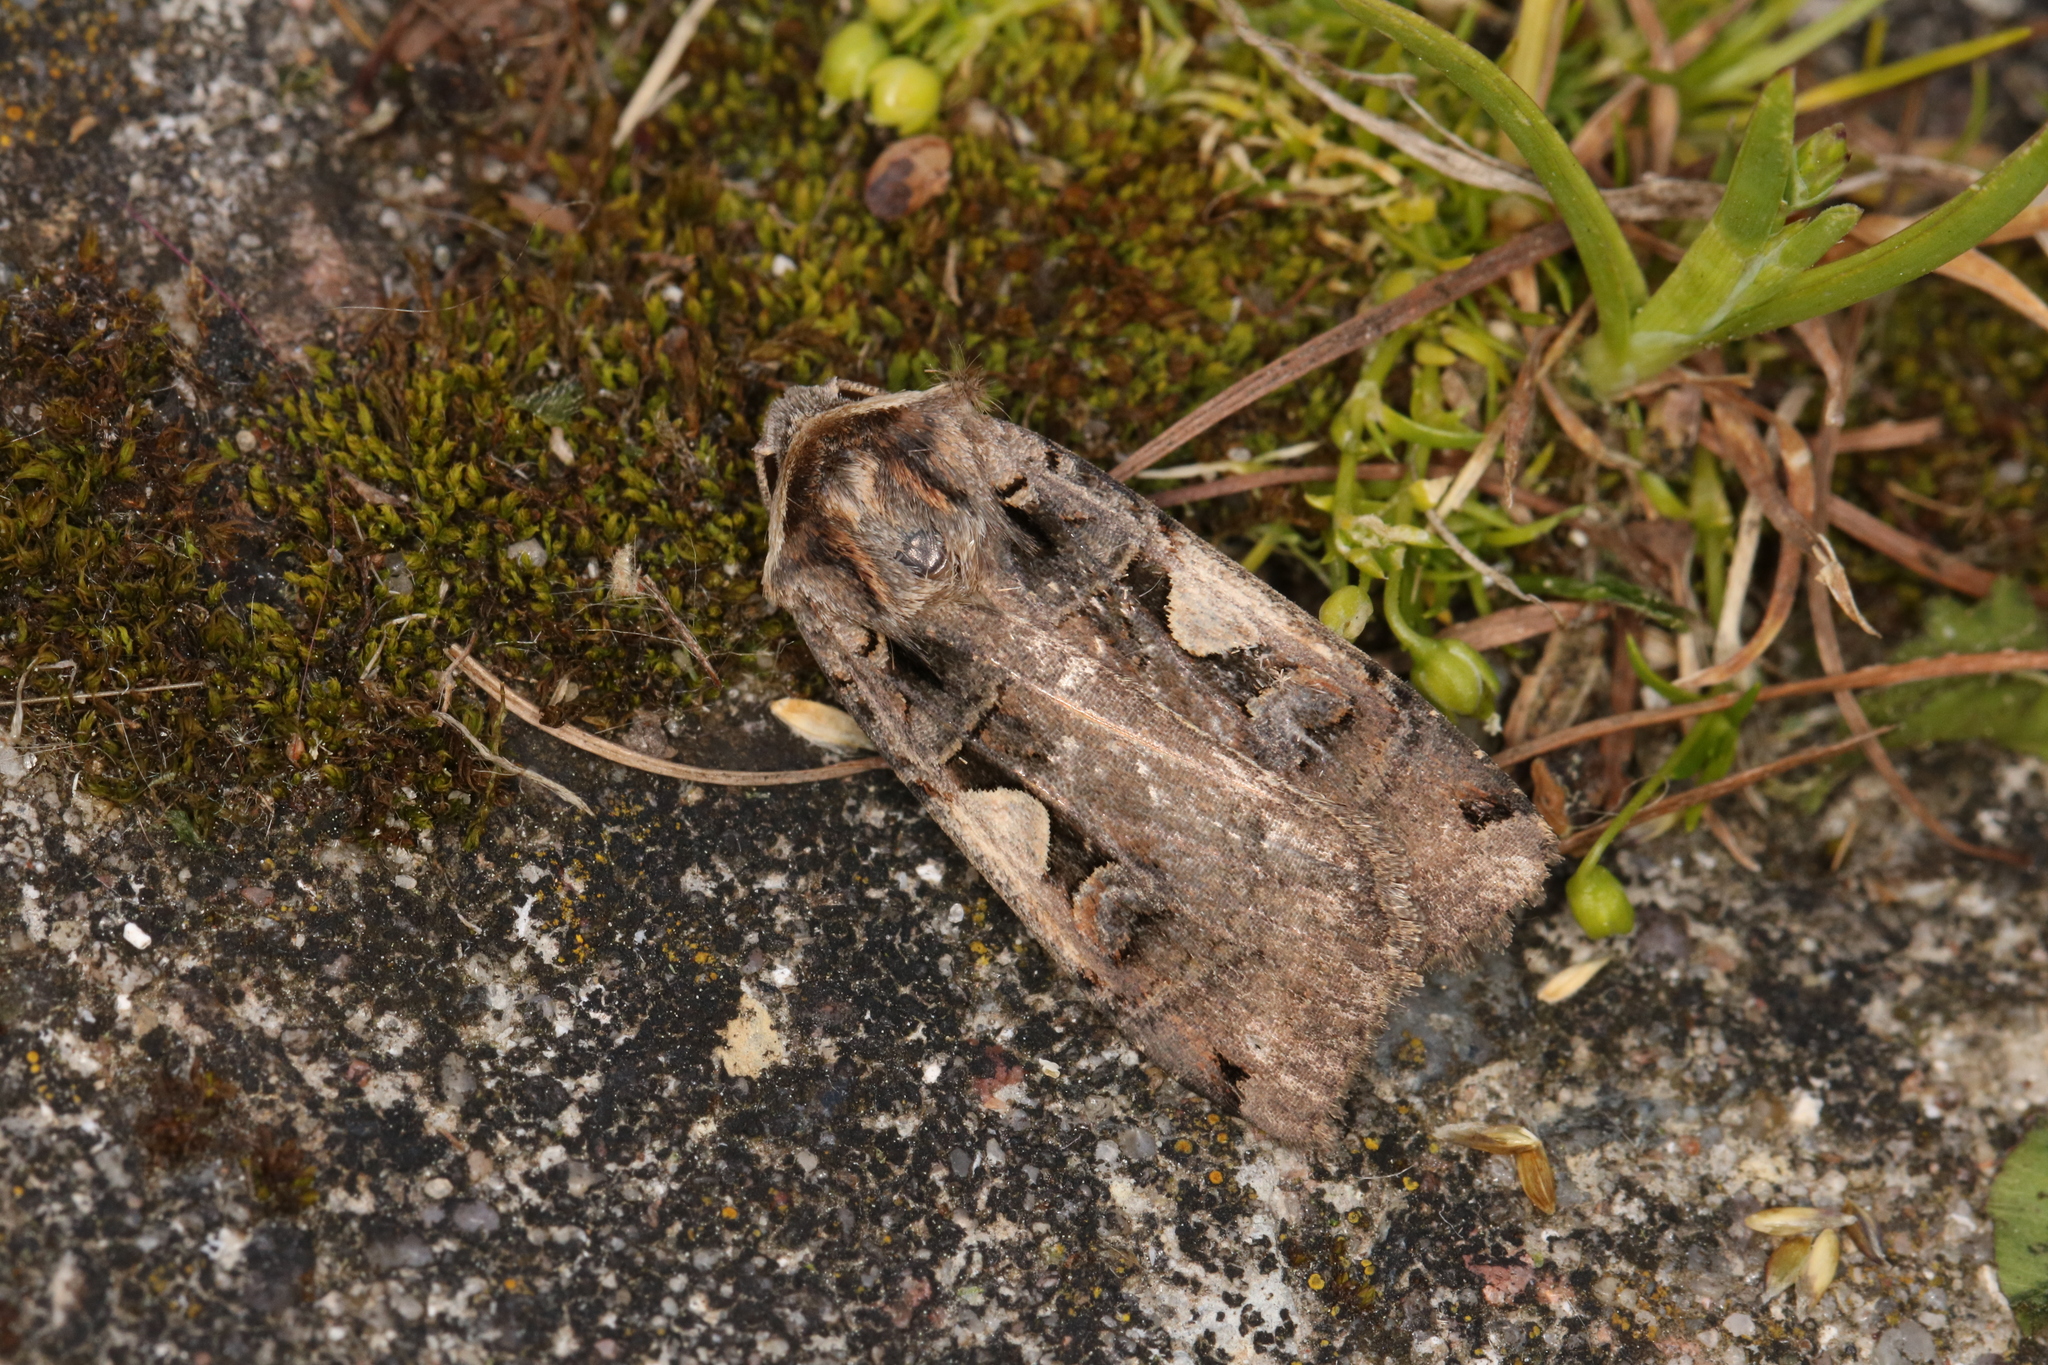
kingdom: Animalia
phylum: Arthropoda
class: Insecta
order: Lepidoptera
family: Noctuidae
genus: Xestia
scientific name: Xestia c-nigrum
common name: Setaceous hebrew character
